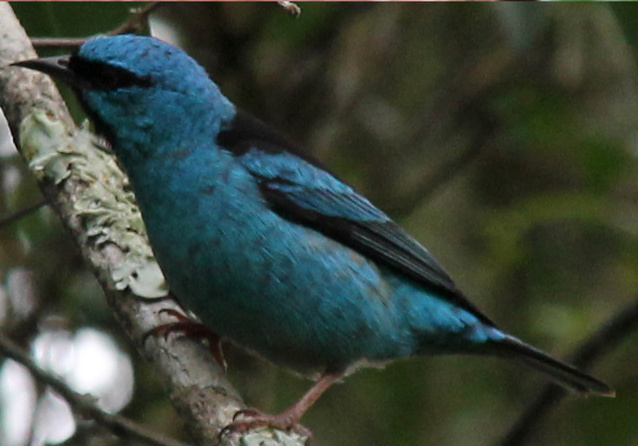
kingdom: Animalia
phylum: Chordata
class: Aves
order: Passeriformes
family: Thraupidae
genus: Dacnis
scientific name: Dacnis cayana
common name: Blue dacnis
